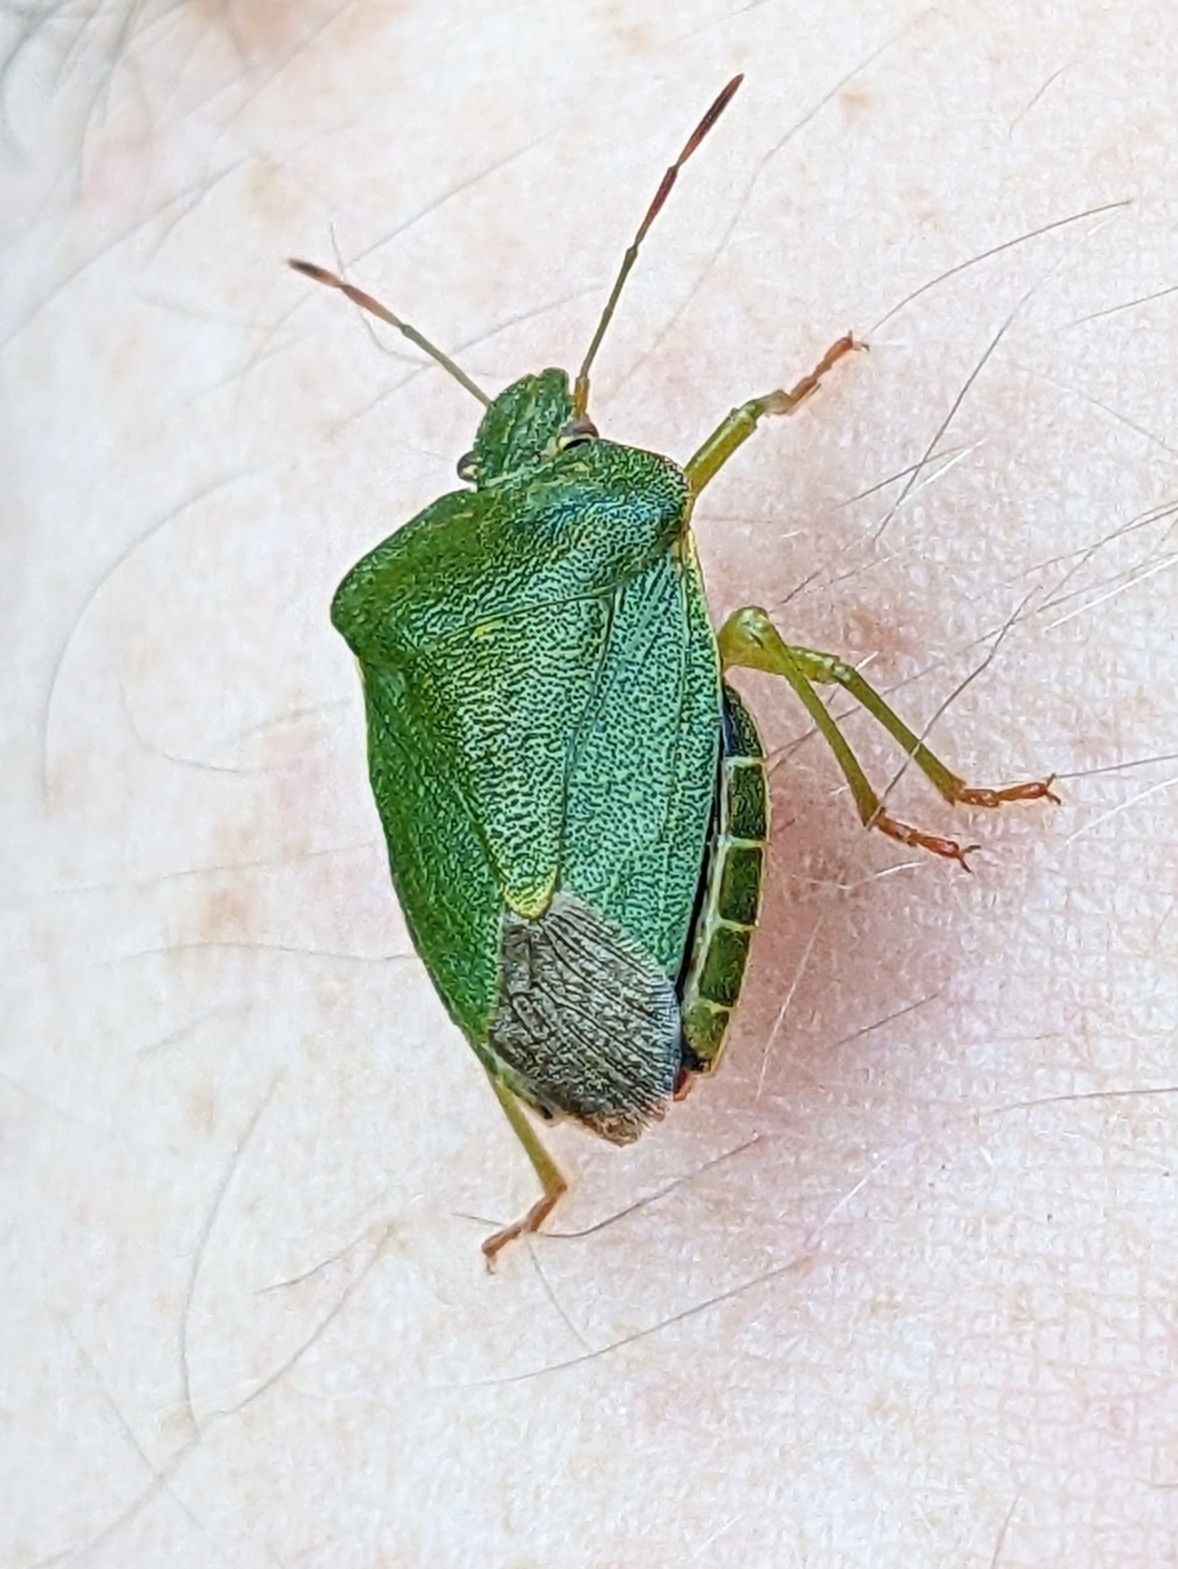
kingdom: Animalia
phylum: Arthropoda
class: Insecta
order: Hemiptera
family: Pentatomidae
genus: Palomena
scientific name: Palomena prasina
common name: Green shieldbug
